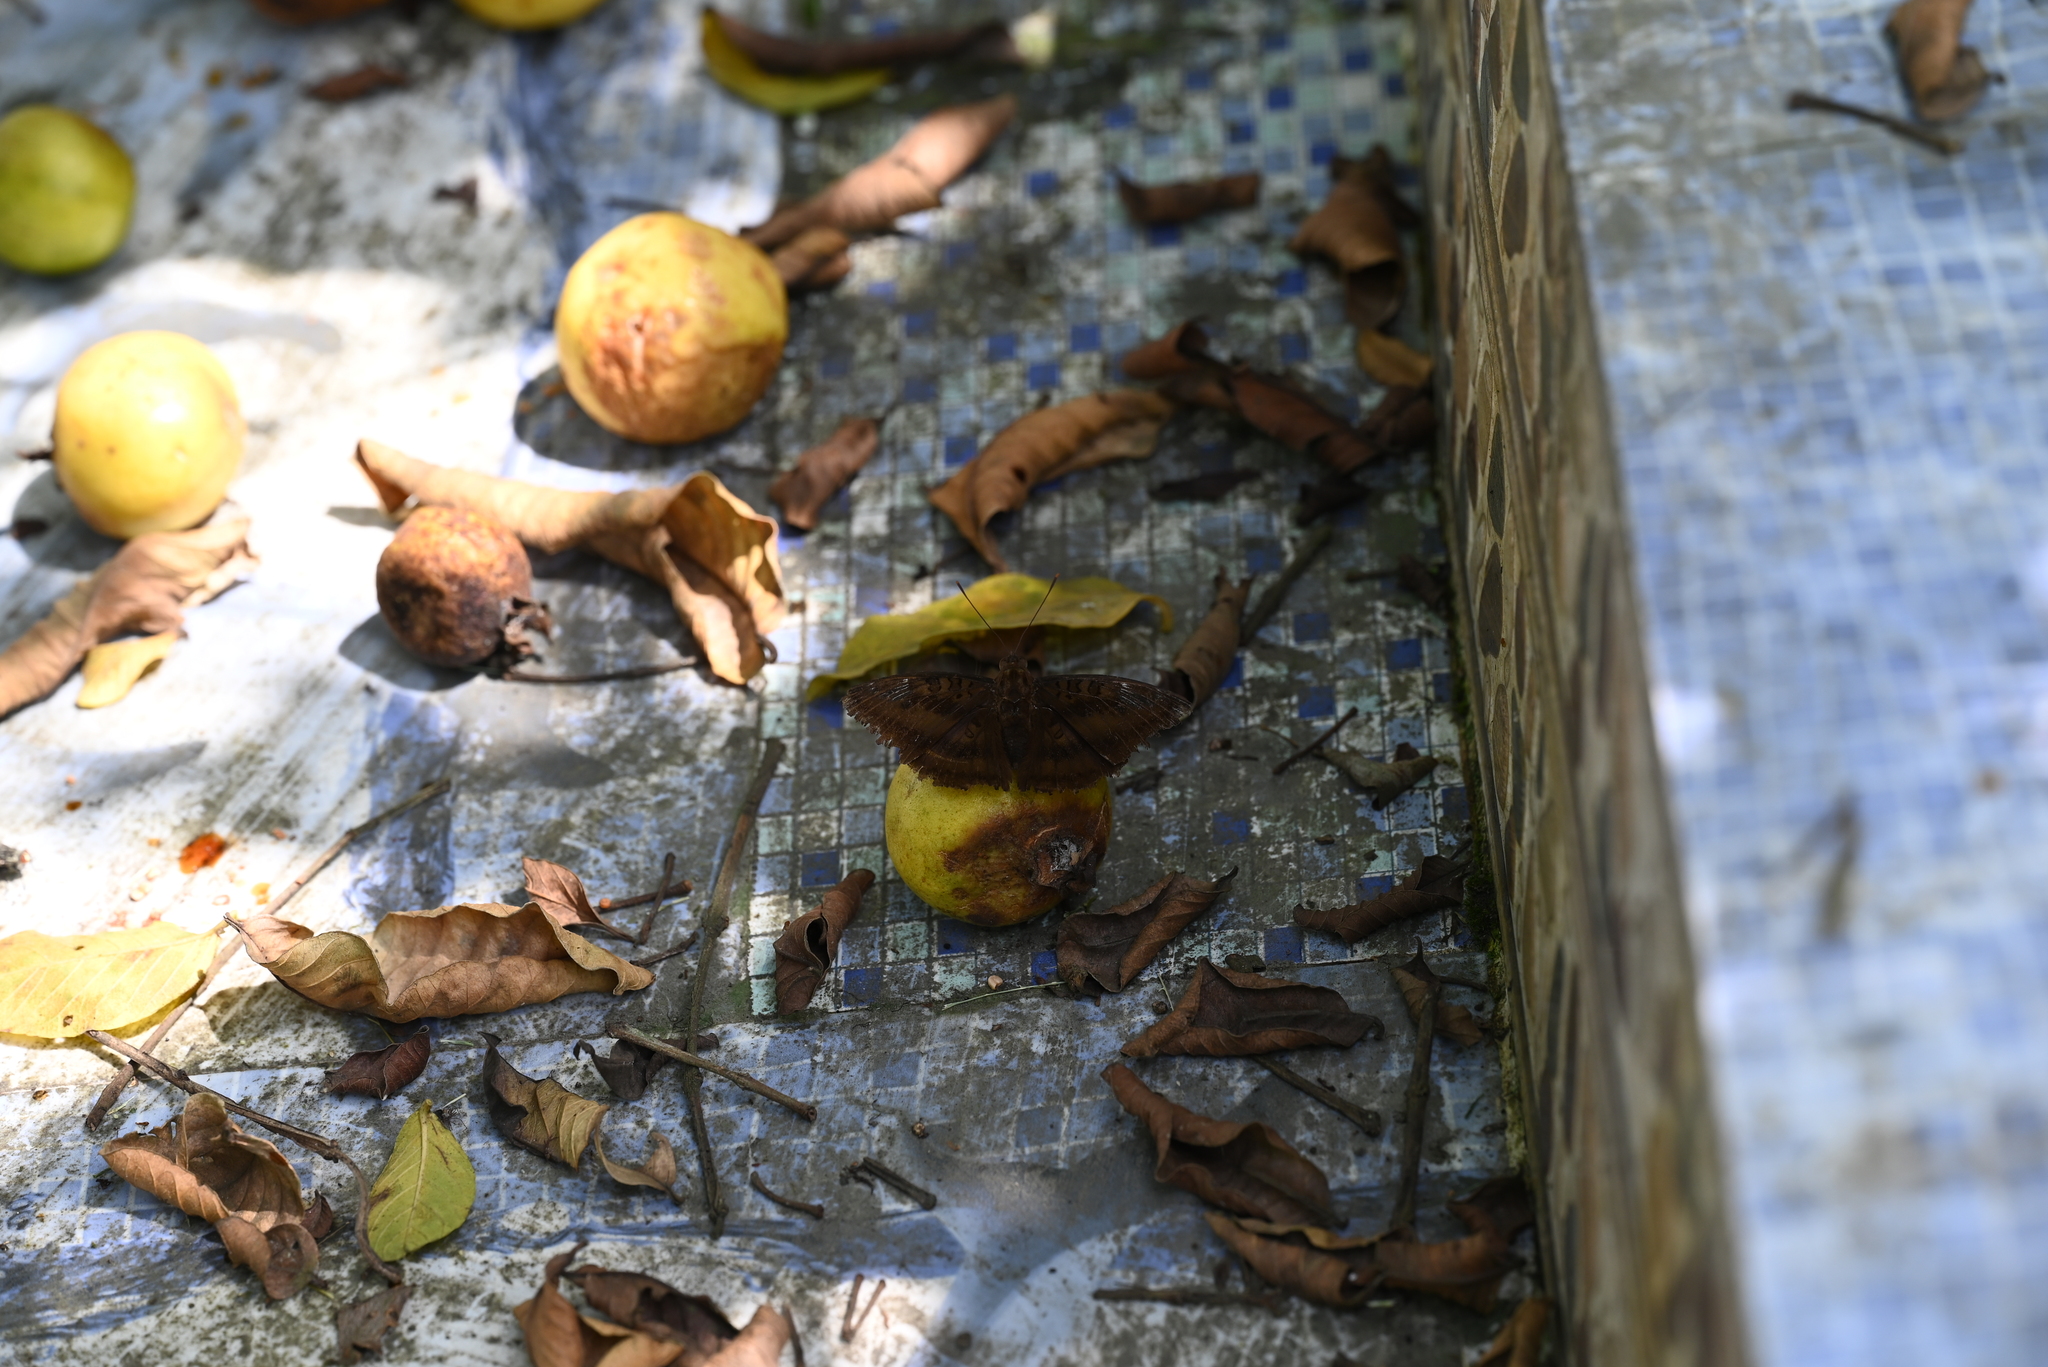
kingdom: Animalia
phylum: Arthropoda
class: Insecta
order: Lepidoptera
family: Nymphalidae
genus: Euthalia
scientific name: Euthalia aconthea
